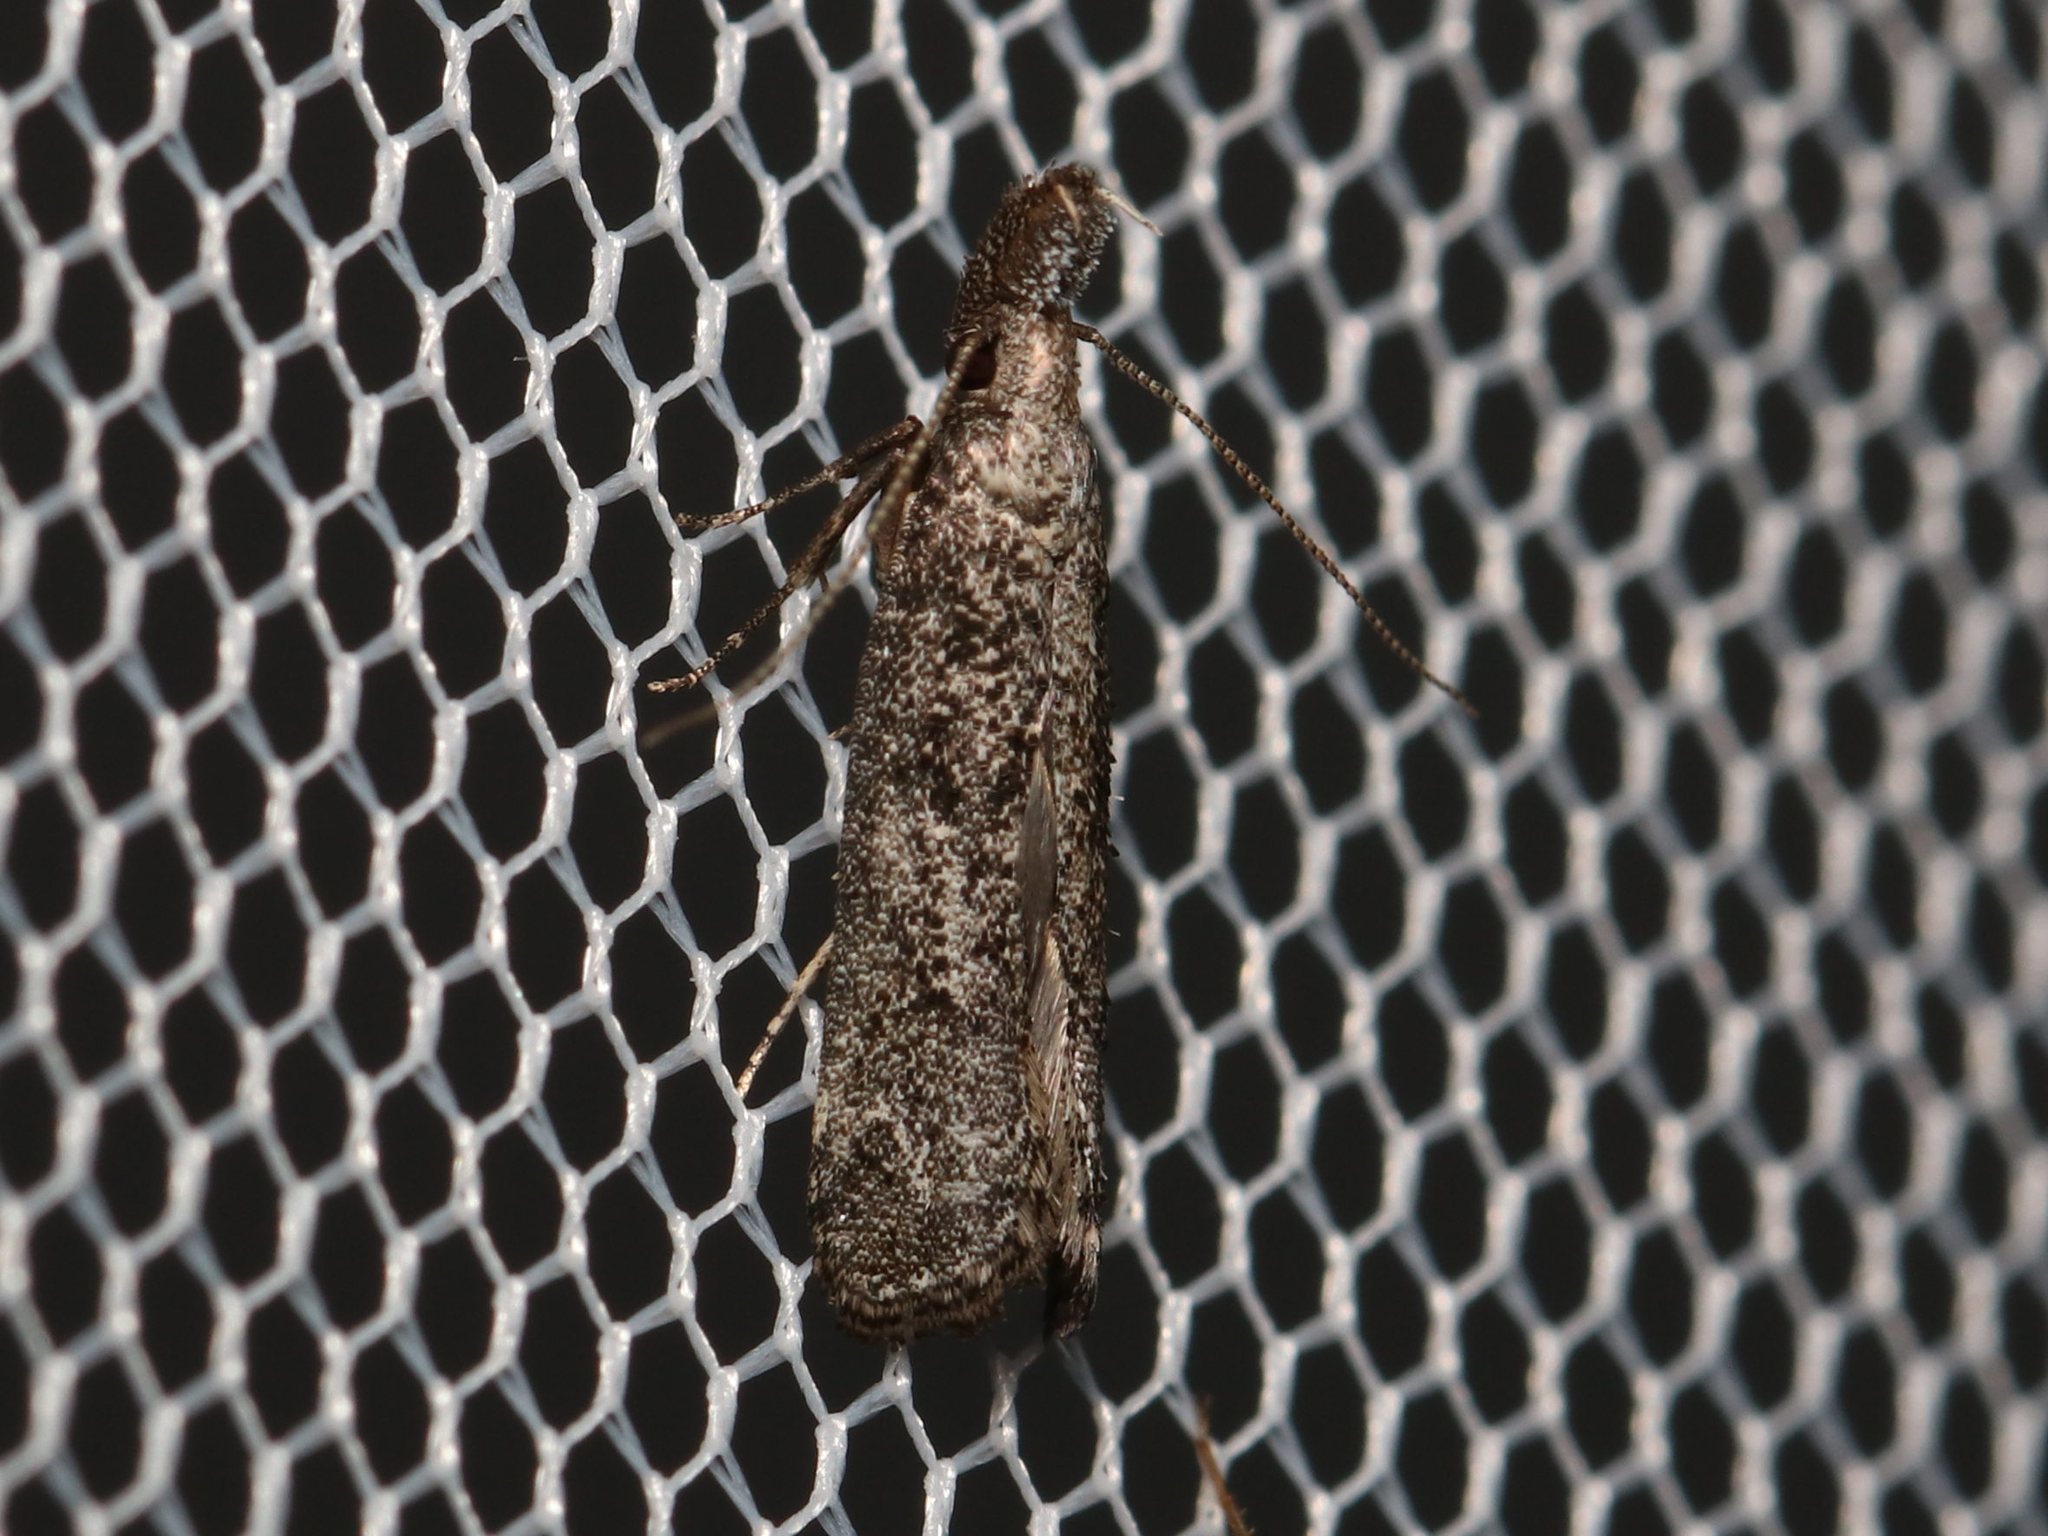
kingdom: Animalia
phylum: Arthropoda
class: Insecta
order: Lepidoptera
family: Gelechiidae
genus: Dichomeris
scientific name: Dichomeris inversella
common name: Inverse dichomeris moth
